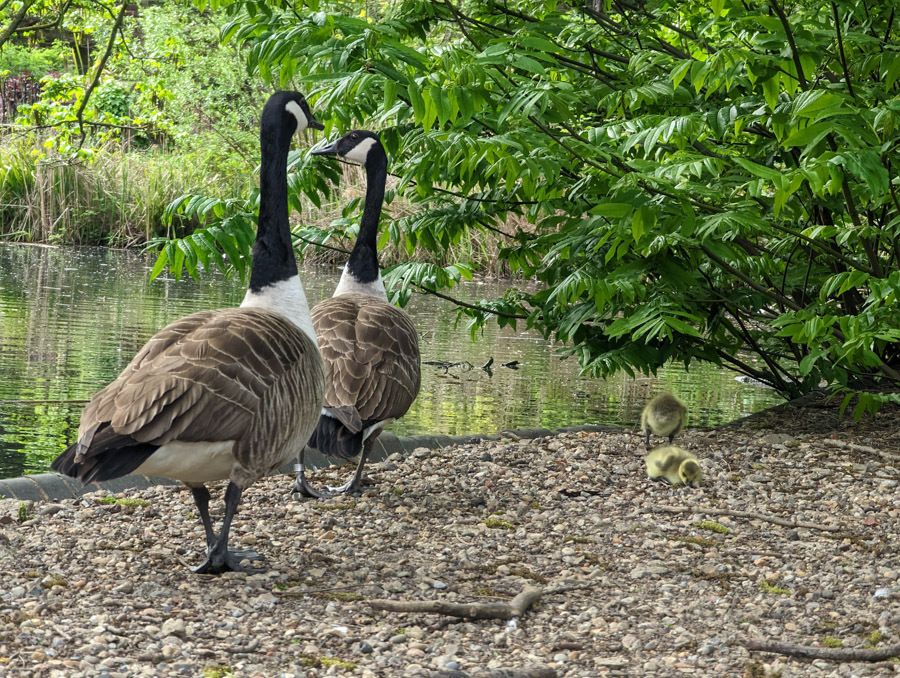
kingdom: Animalia
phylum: Chordata
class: Aves
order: Anseriformes
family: Anatidae
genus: Branta
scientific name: Branta canadensis
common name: Canada goose
